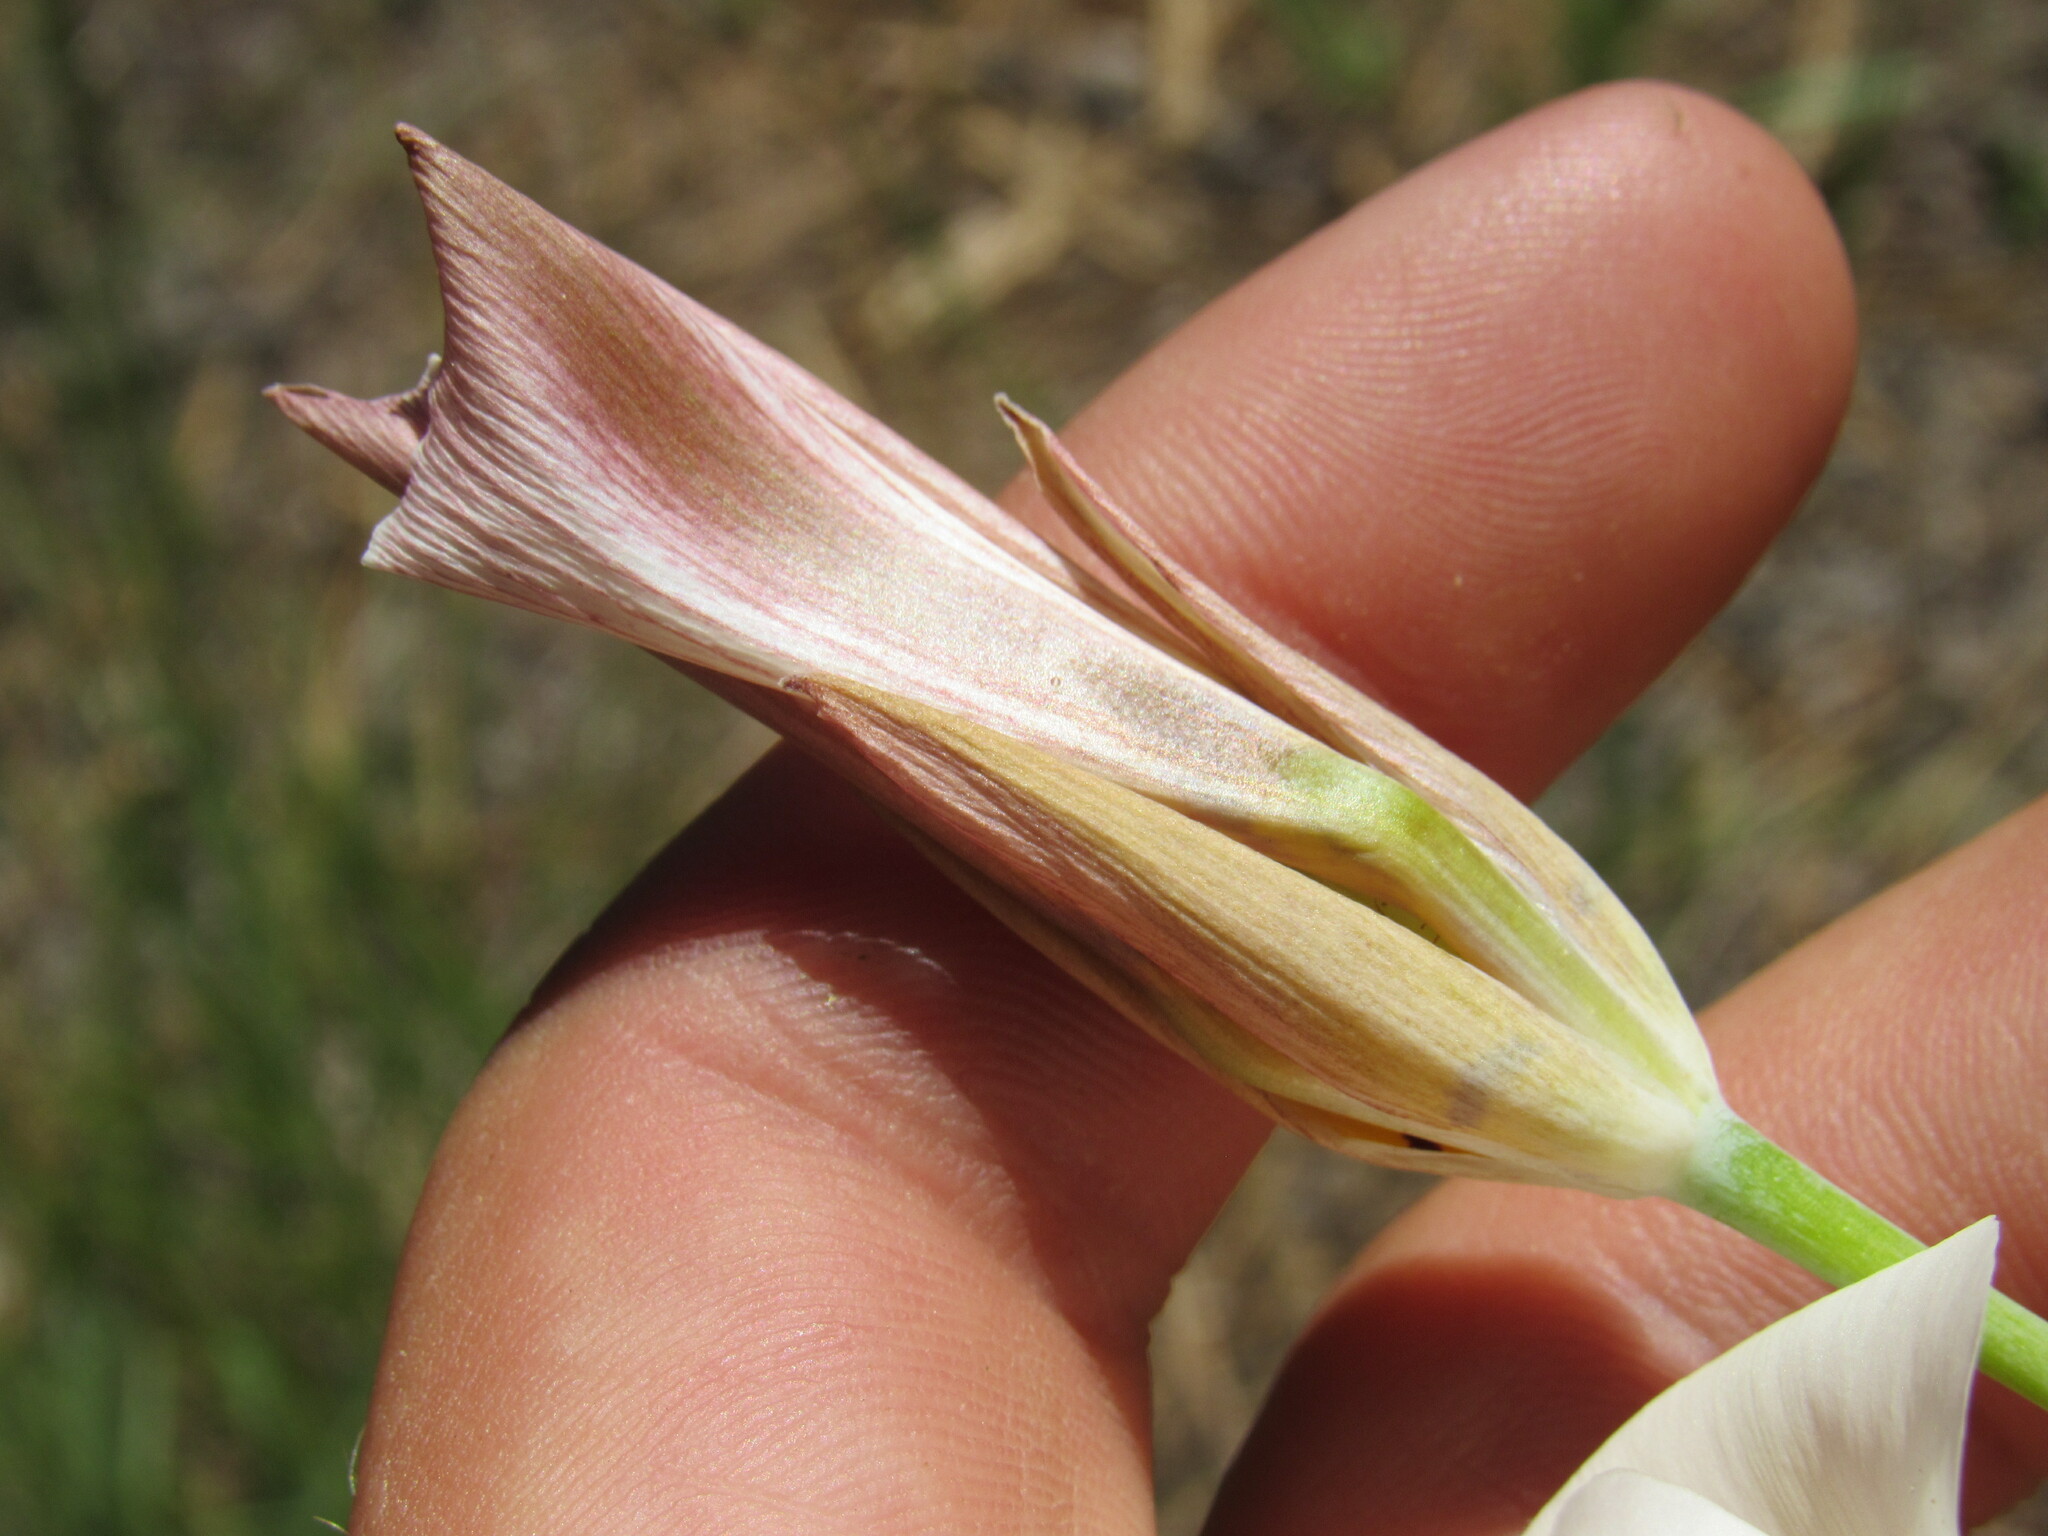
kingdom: Plantae
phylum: Tracheophyta
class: Liliopsida
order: Liliales
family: Liliaceae
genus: Calochortus
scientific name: Calochortus nuttallii
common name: Sego-lily
